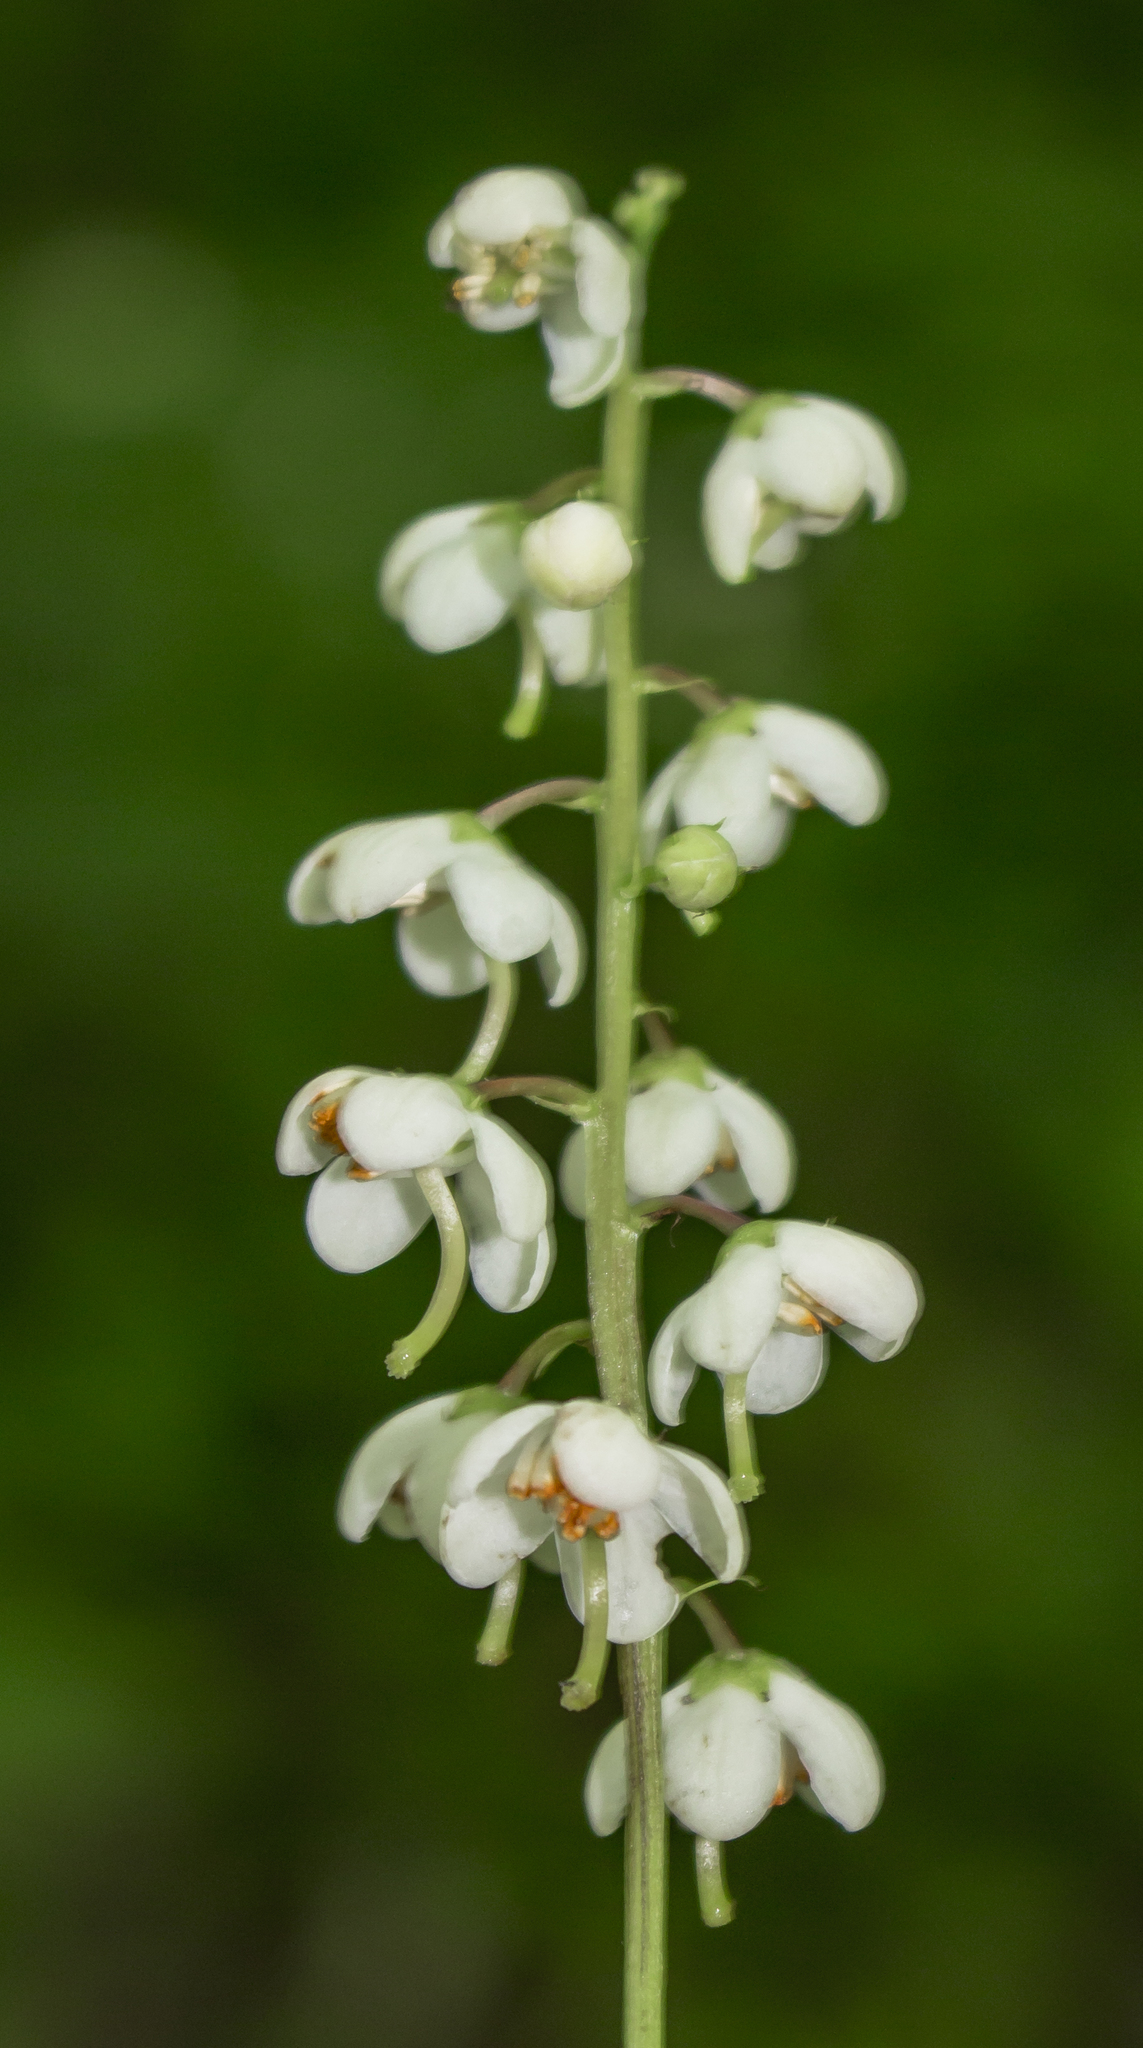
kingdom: Plantae
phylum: Tracheophyta
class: Magnoliopsida
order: Ericales
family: Ericaceae
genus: Pyrola
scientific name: Pyrola elliptica
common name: Shinleaf
